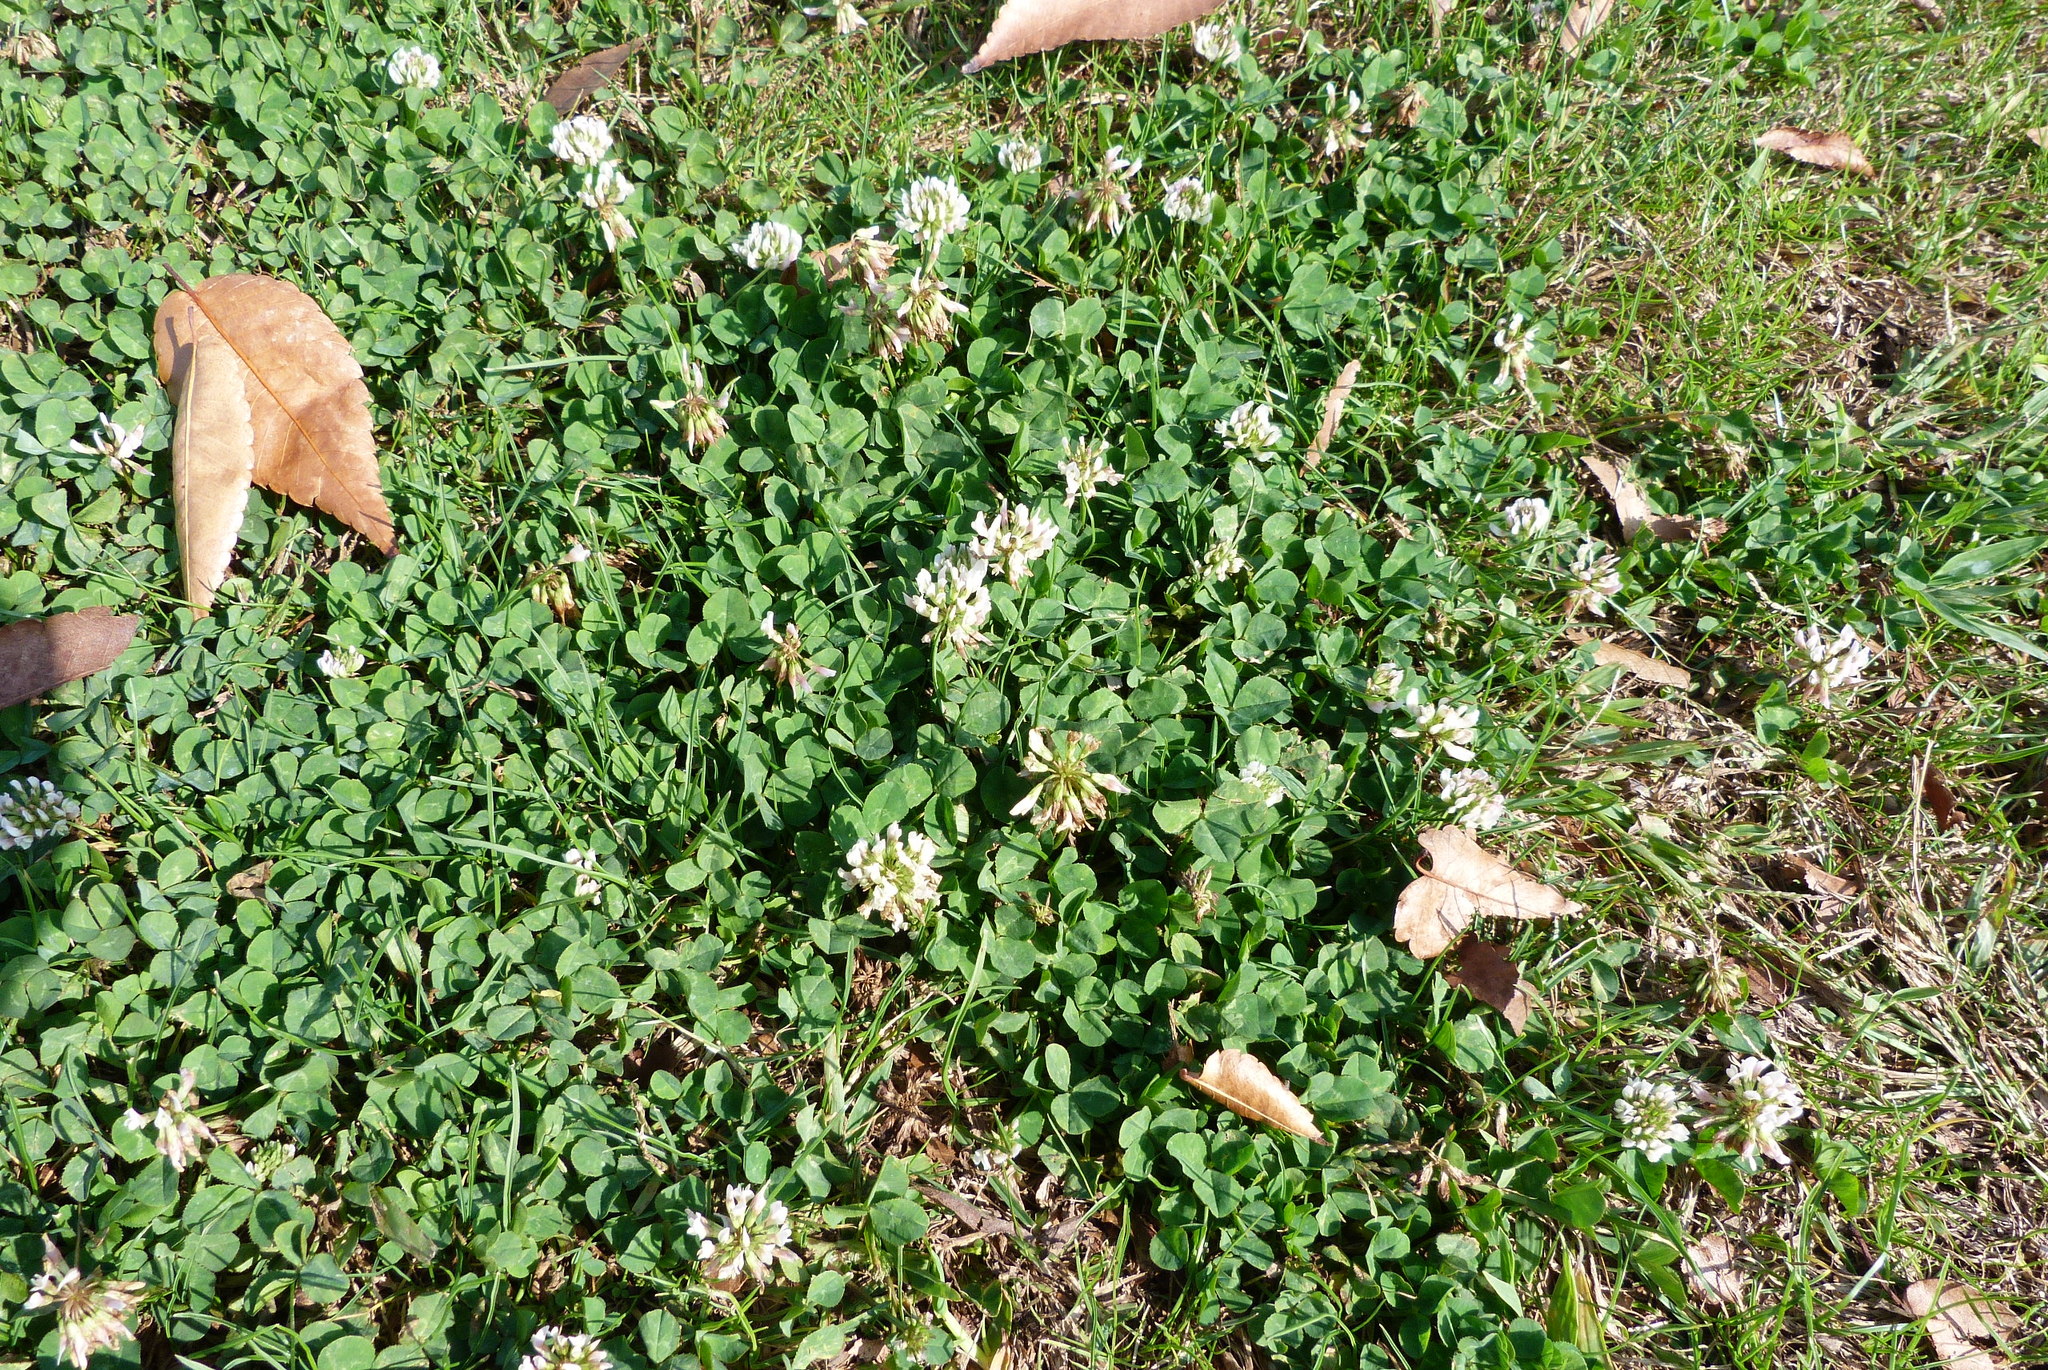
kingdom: Plantae
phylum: Tracheophyta
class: Magnoliopsida
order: Fabales
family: Fabaceae
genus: Trifolium
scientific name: Trifolium repens
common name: White clover
